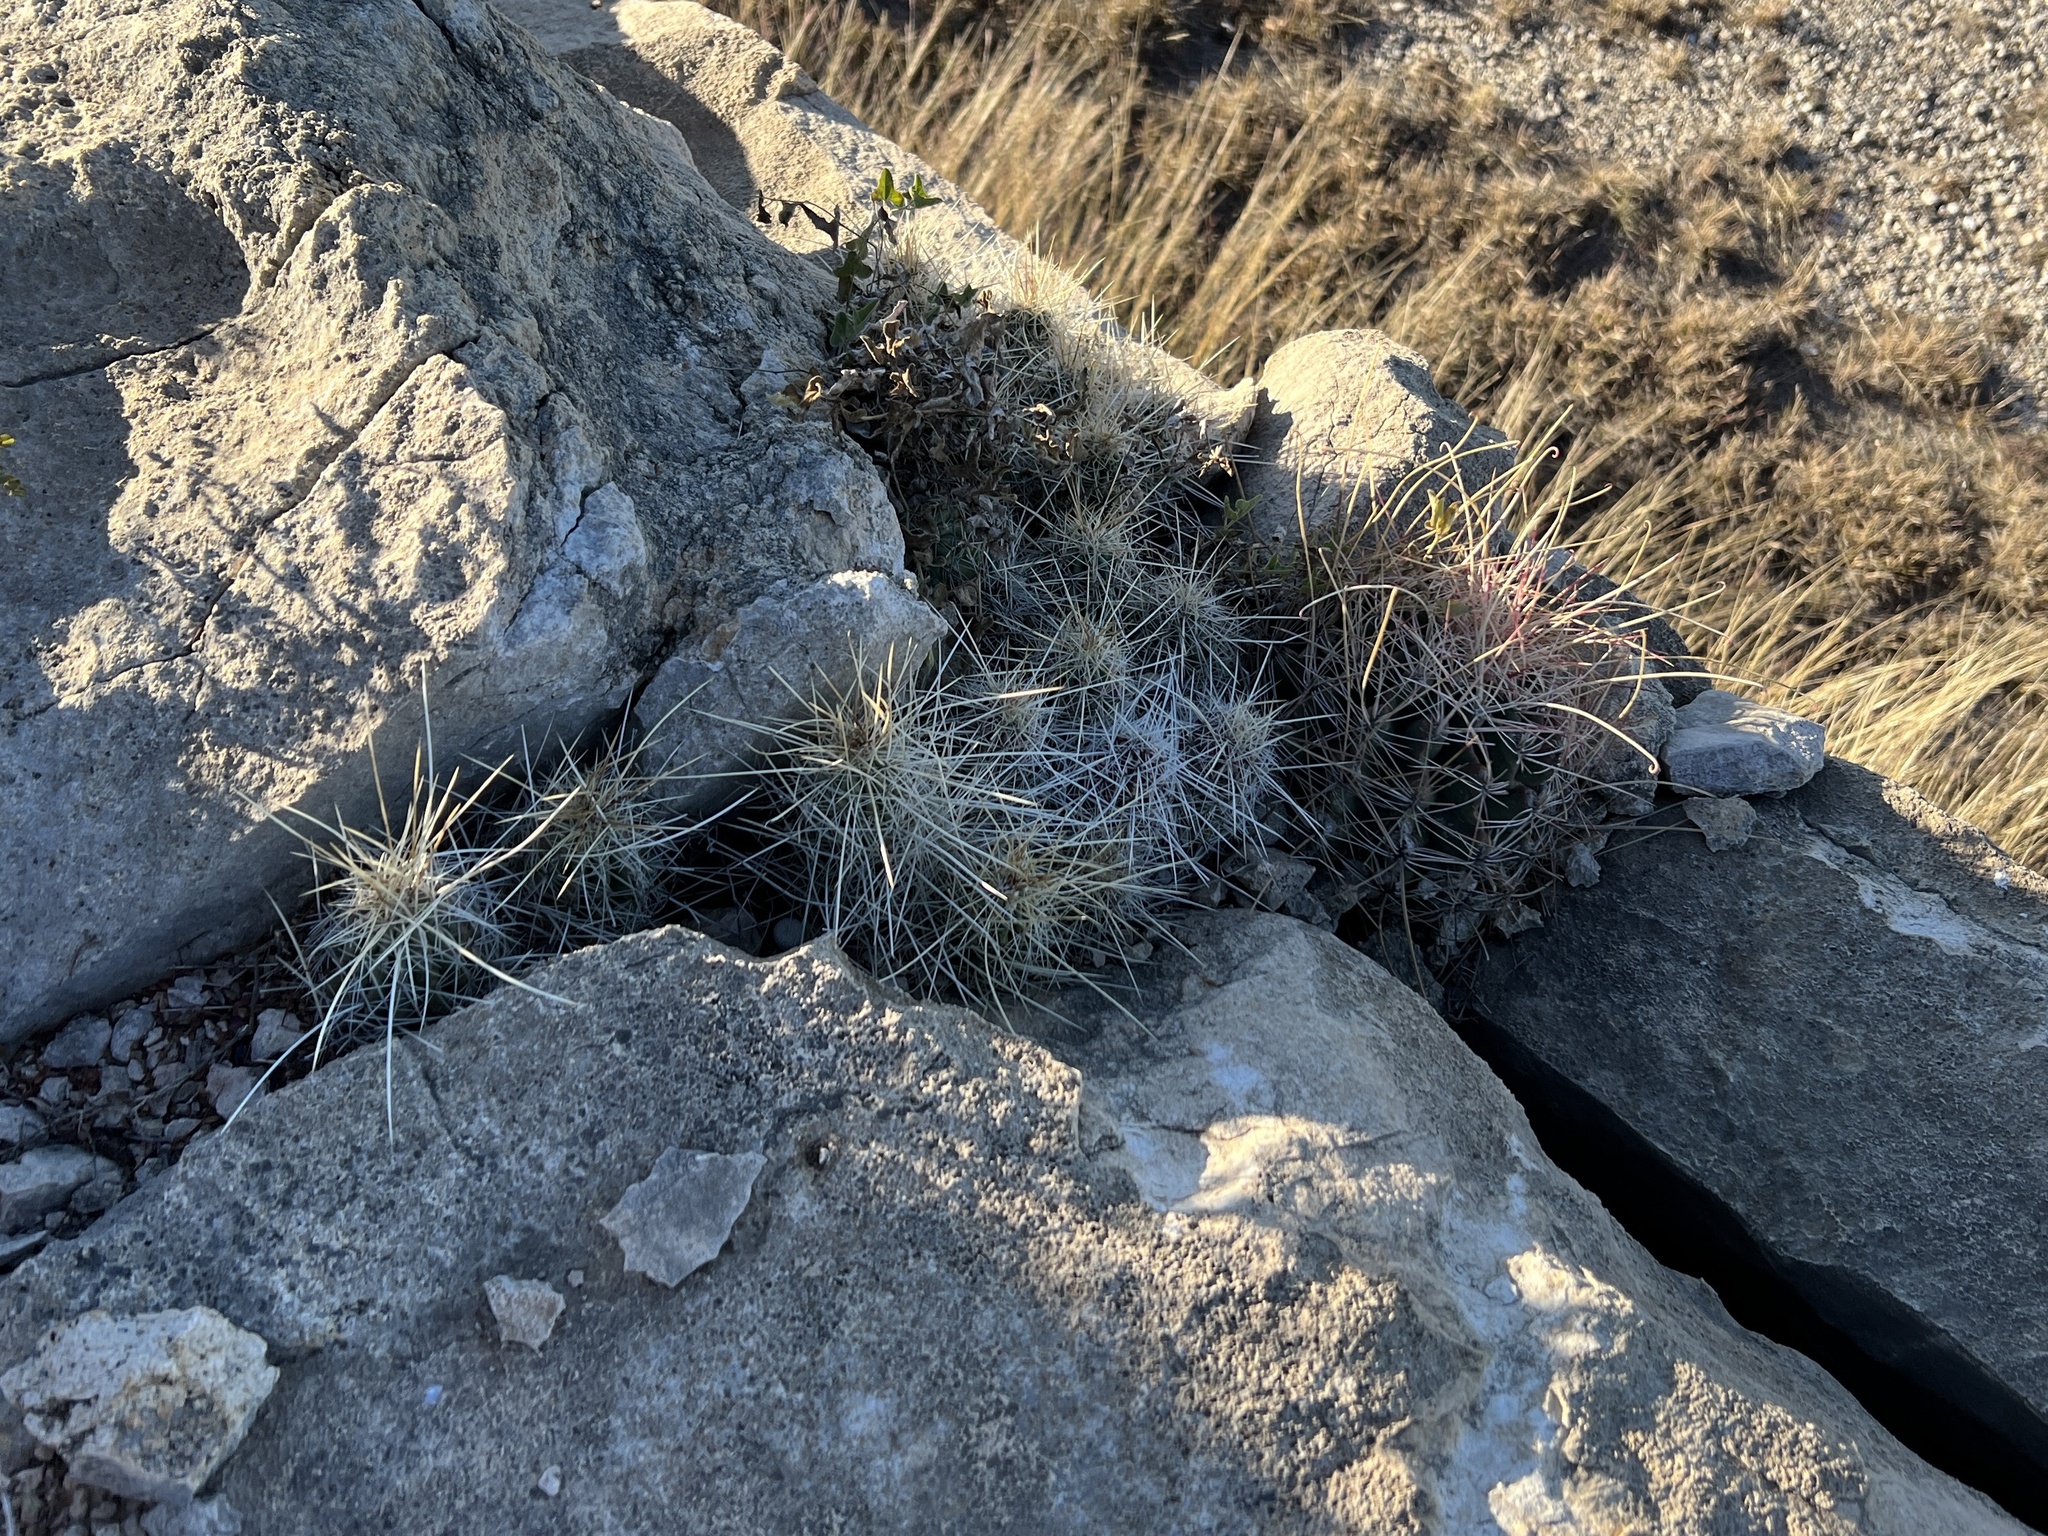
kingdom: Plantae
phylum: Tracheophyta
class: Magnoliopsida
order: Caryophyllales
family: Cactaceae
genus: Echinocereus
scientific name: Echinocereus stramineus
